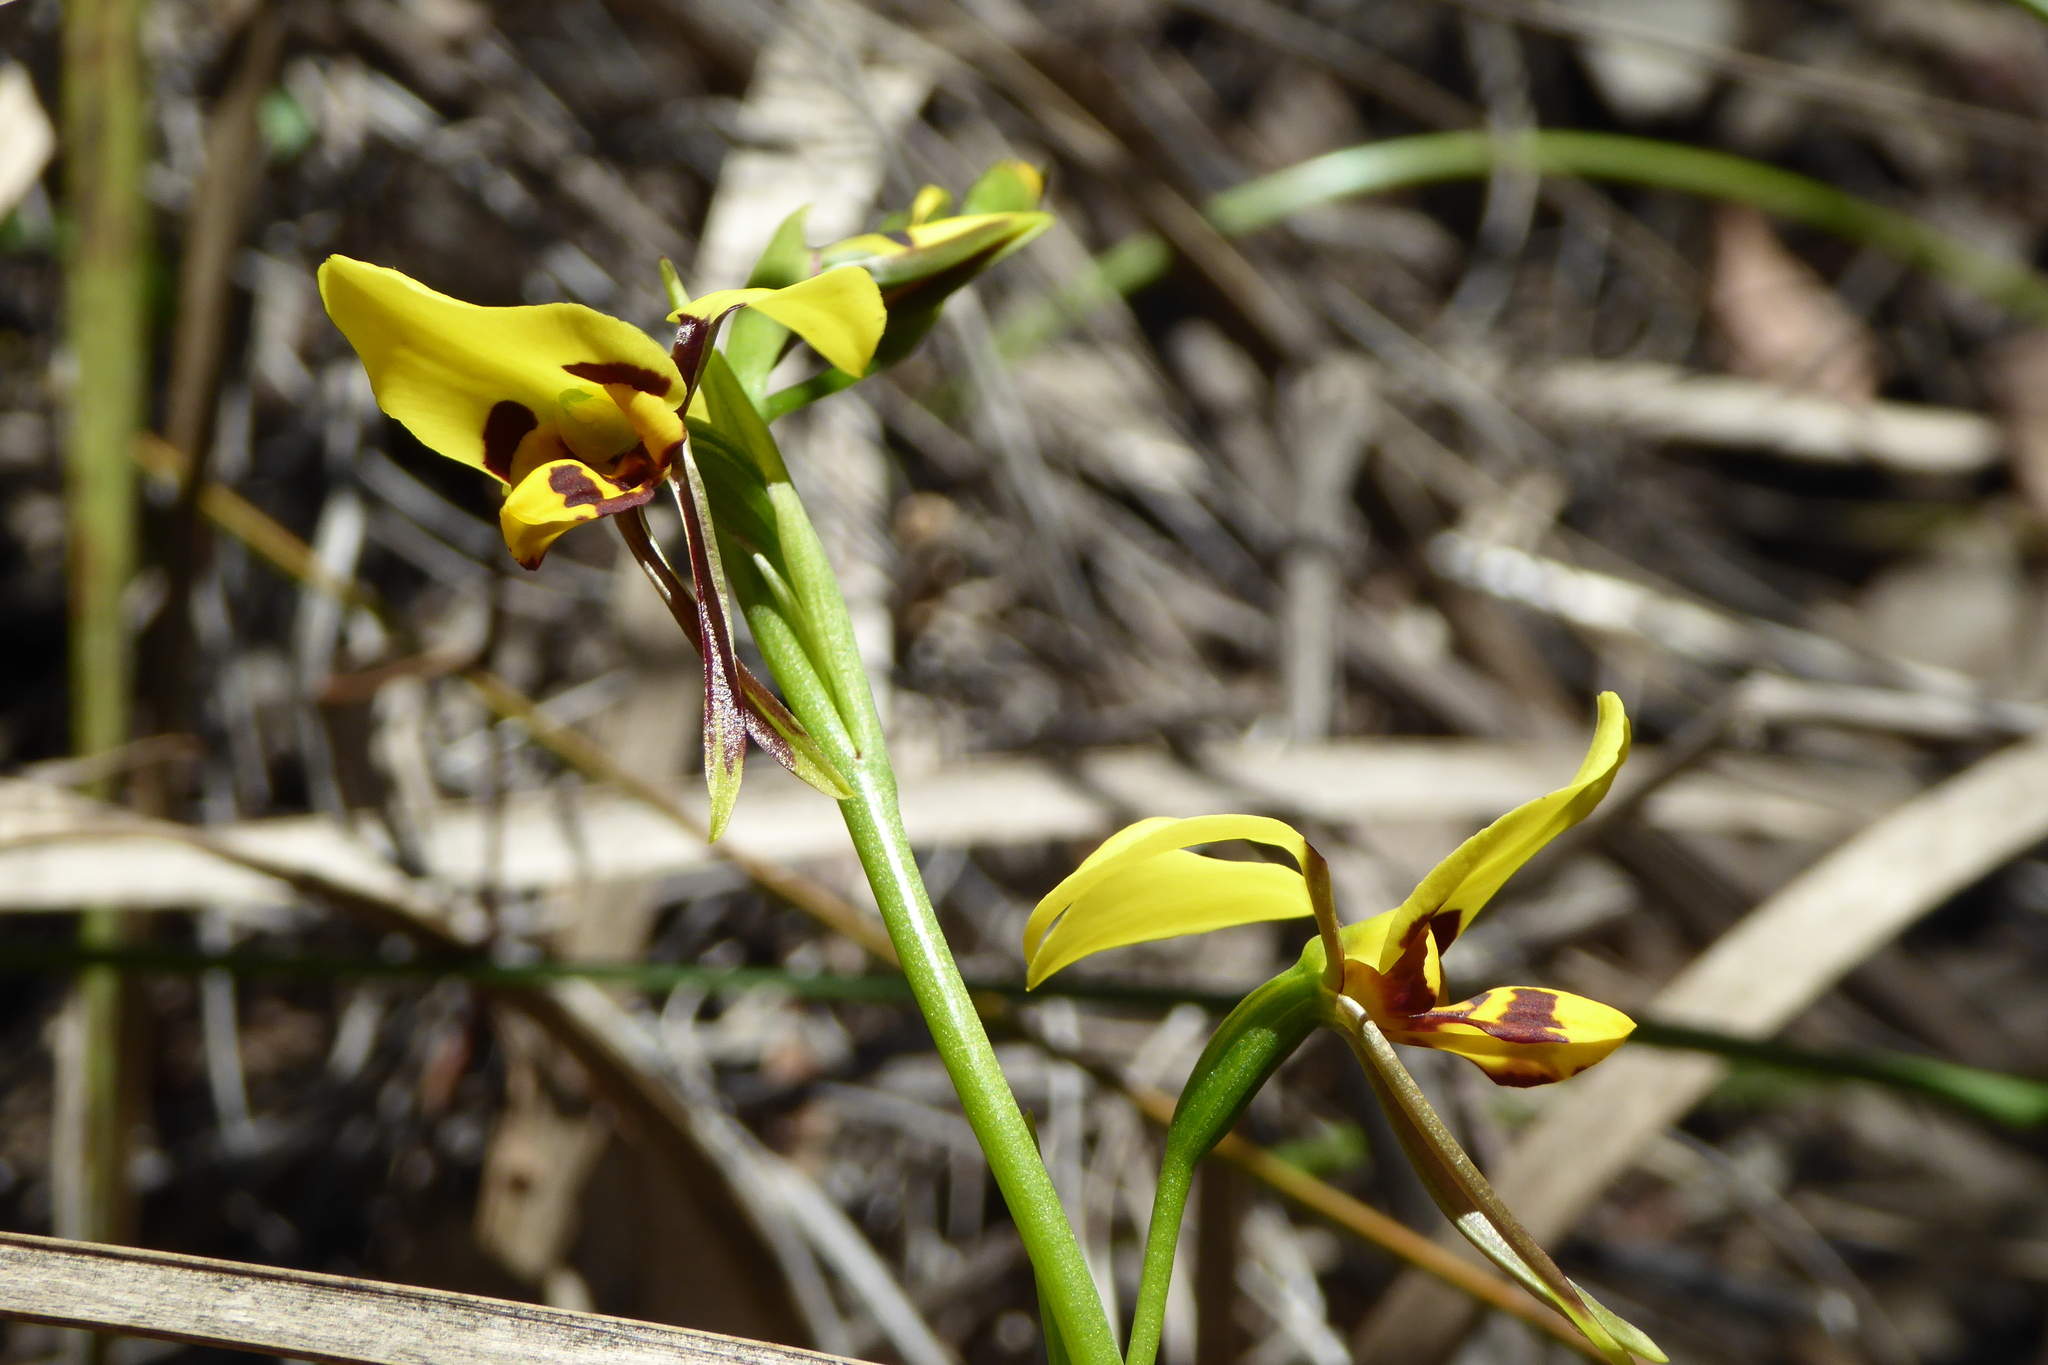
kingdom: Plantae
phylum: Tracheophyta
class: Liliopsida
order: Asparagales
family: Orchidaceae
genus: Diuris
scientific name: Diuris sulphurea
